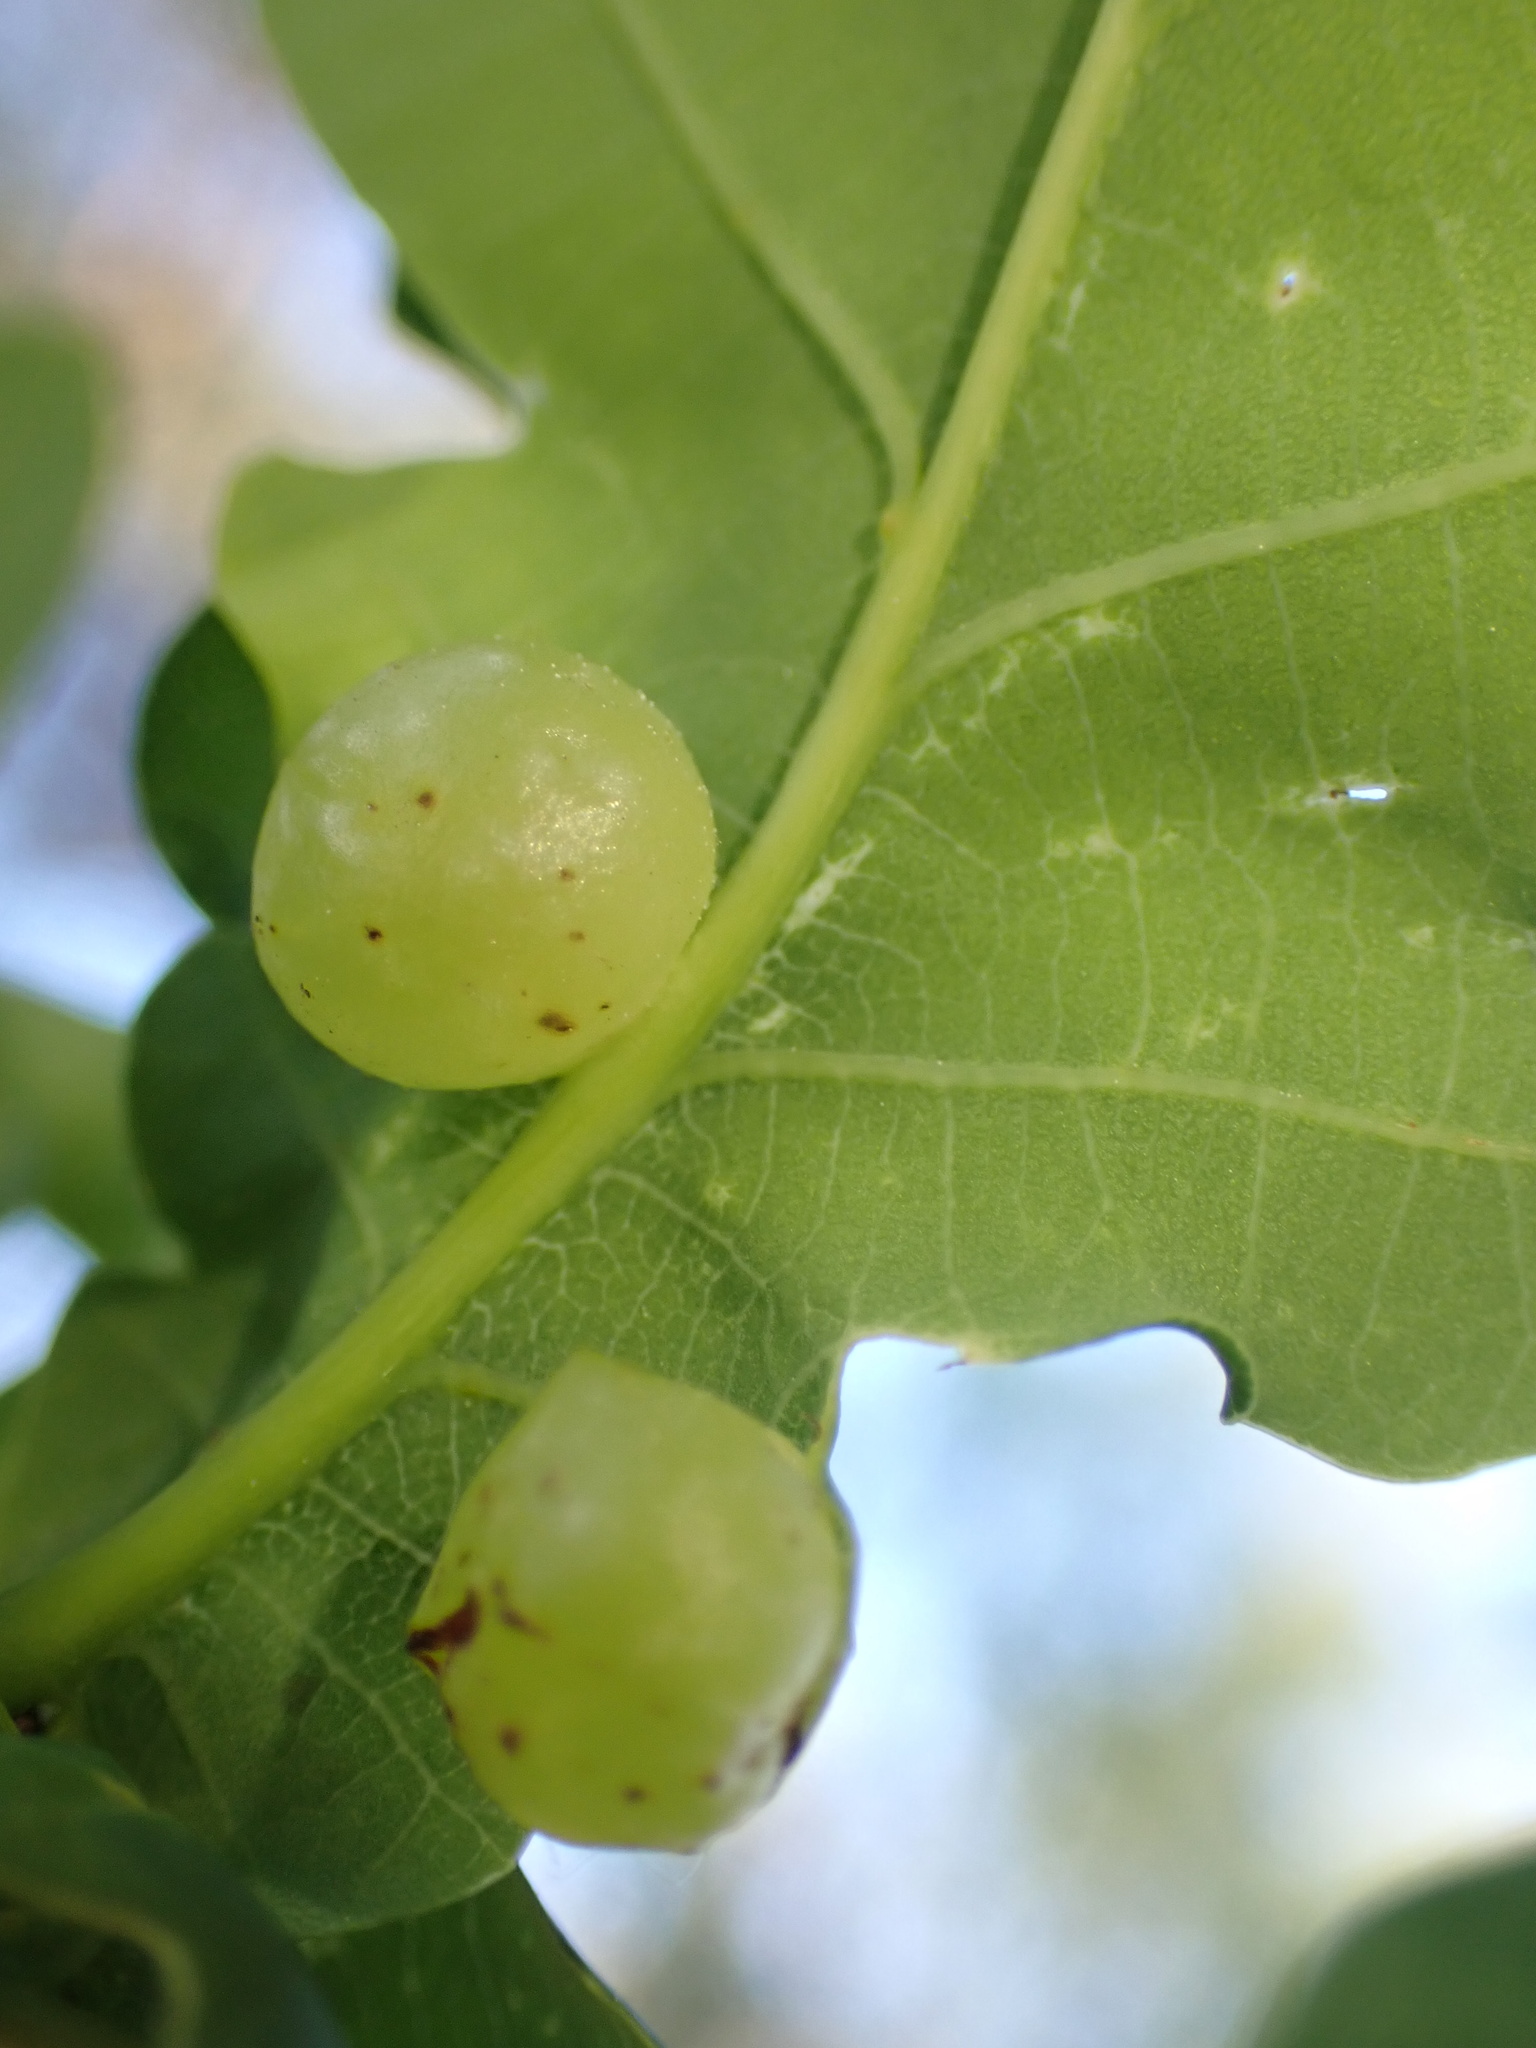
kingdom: Animalia
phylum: Arthropoda
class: Insecta
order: Hymenoptera
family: Cynipidae
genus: Neuroterus
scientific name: Neuroterus quercusbaccarum
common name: Common spangle gall
